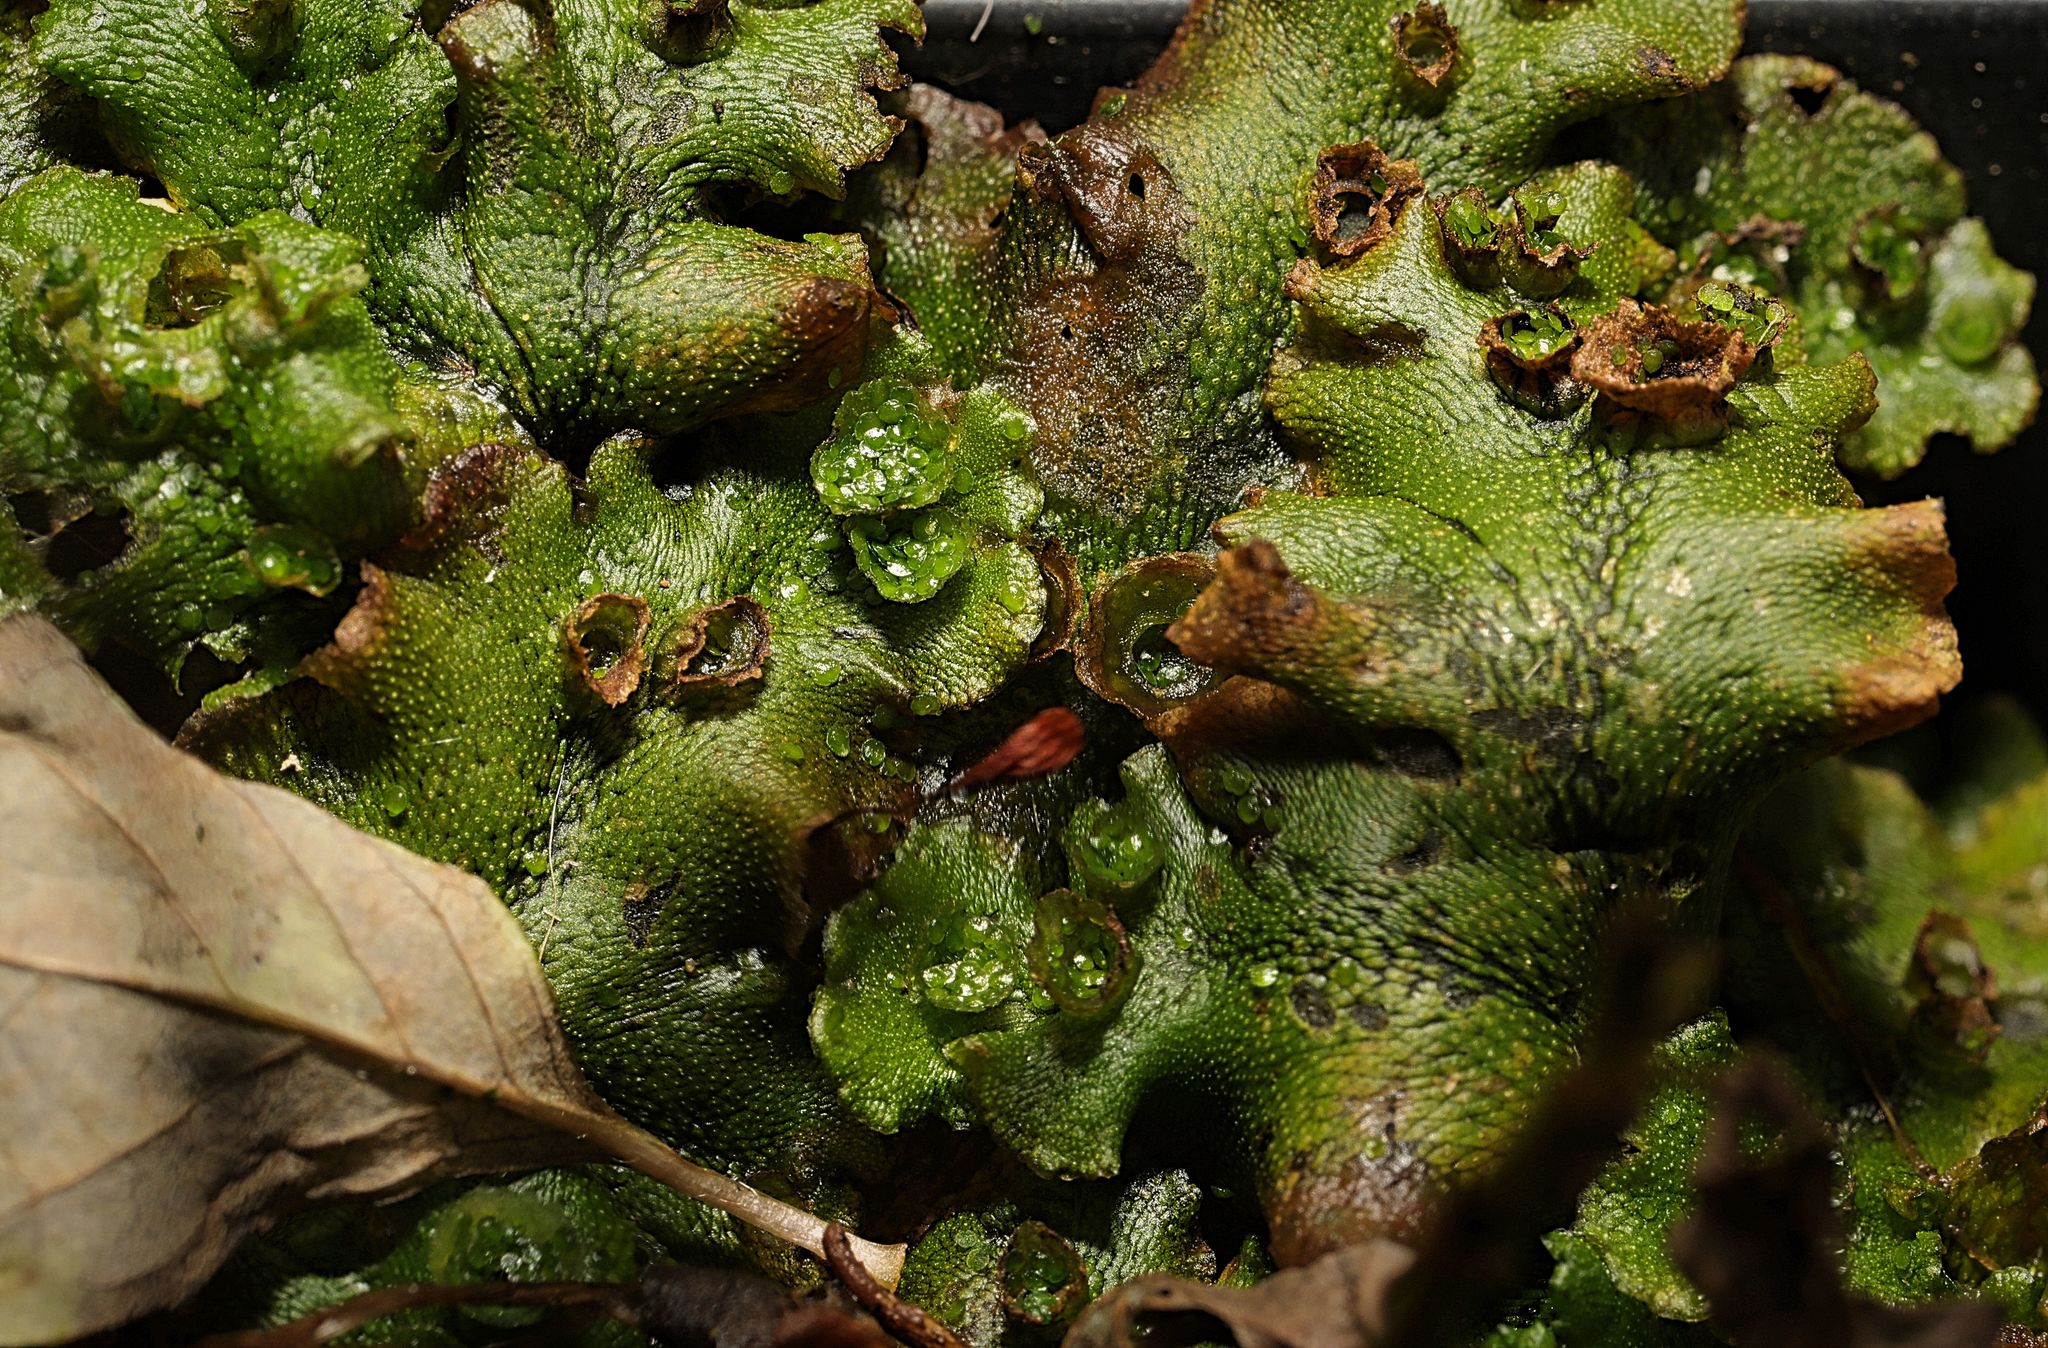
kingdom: Plantae
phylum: Marchantiophyta
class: Marchantiopsida
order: Marchantiales
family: Marchantiaceae
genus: Marchantia
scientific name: Marchantia polymorpha
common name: Common liverwort
